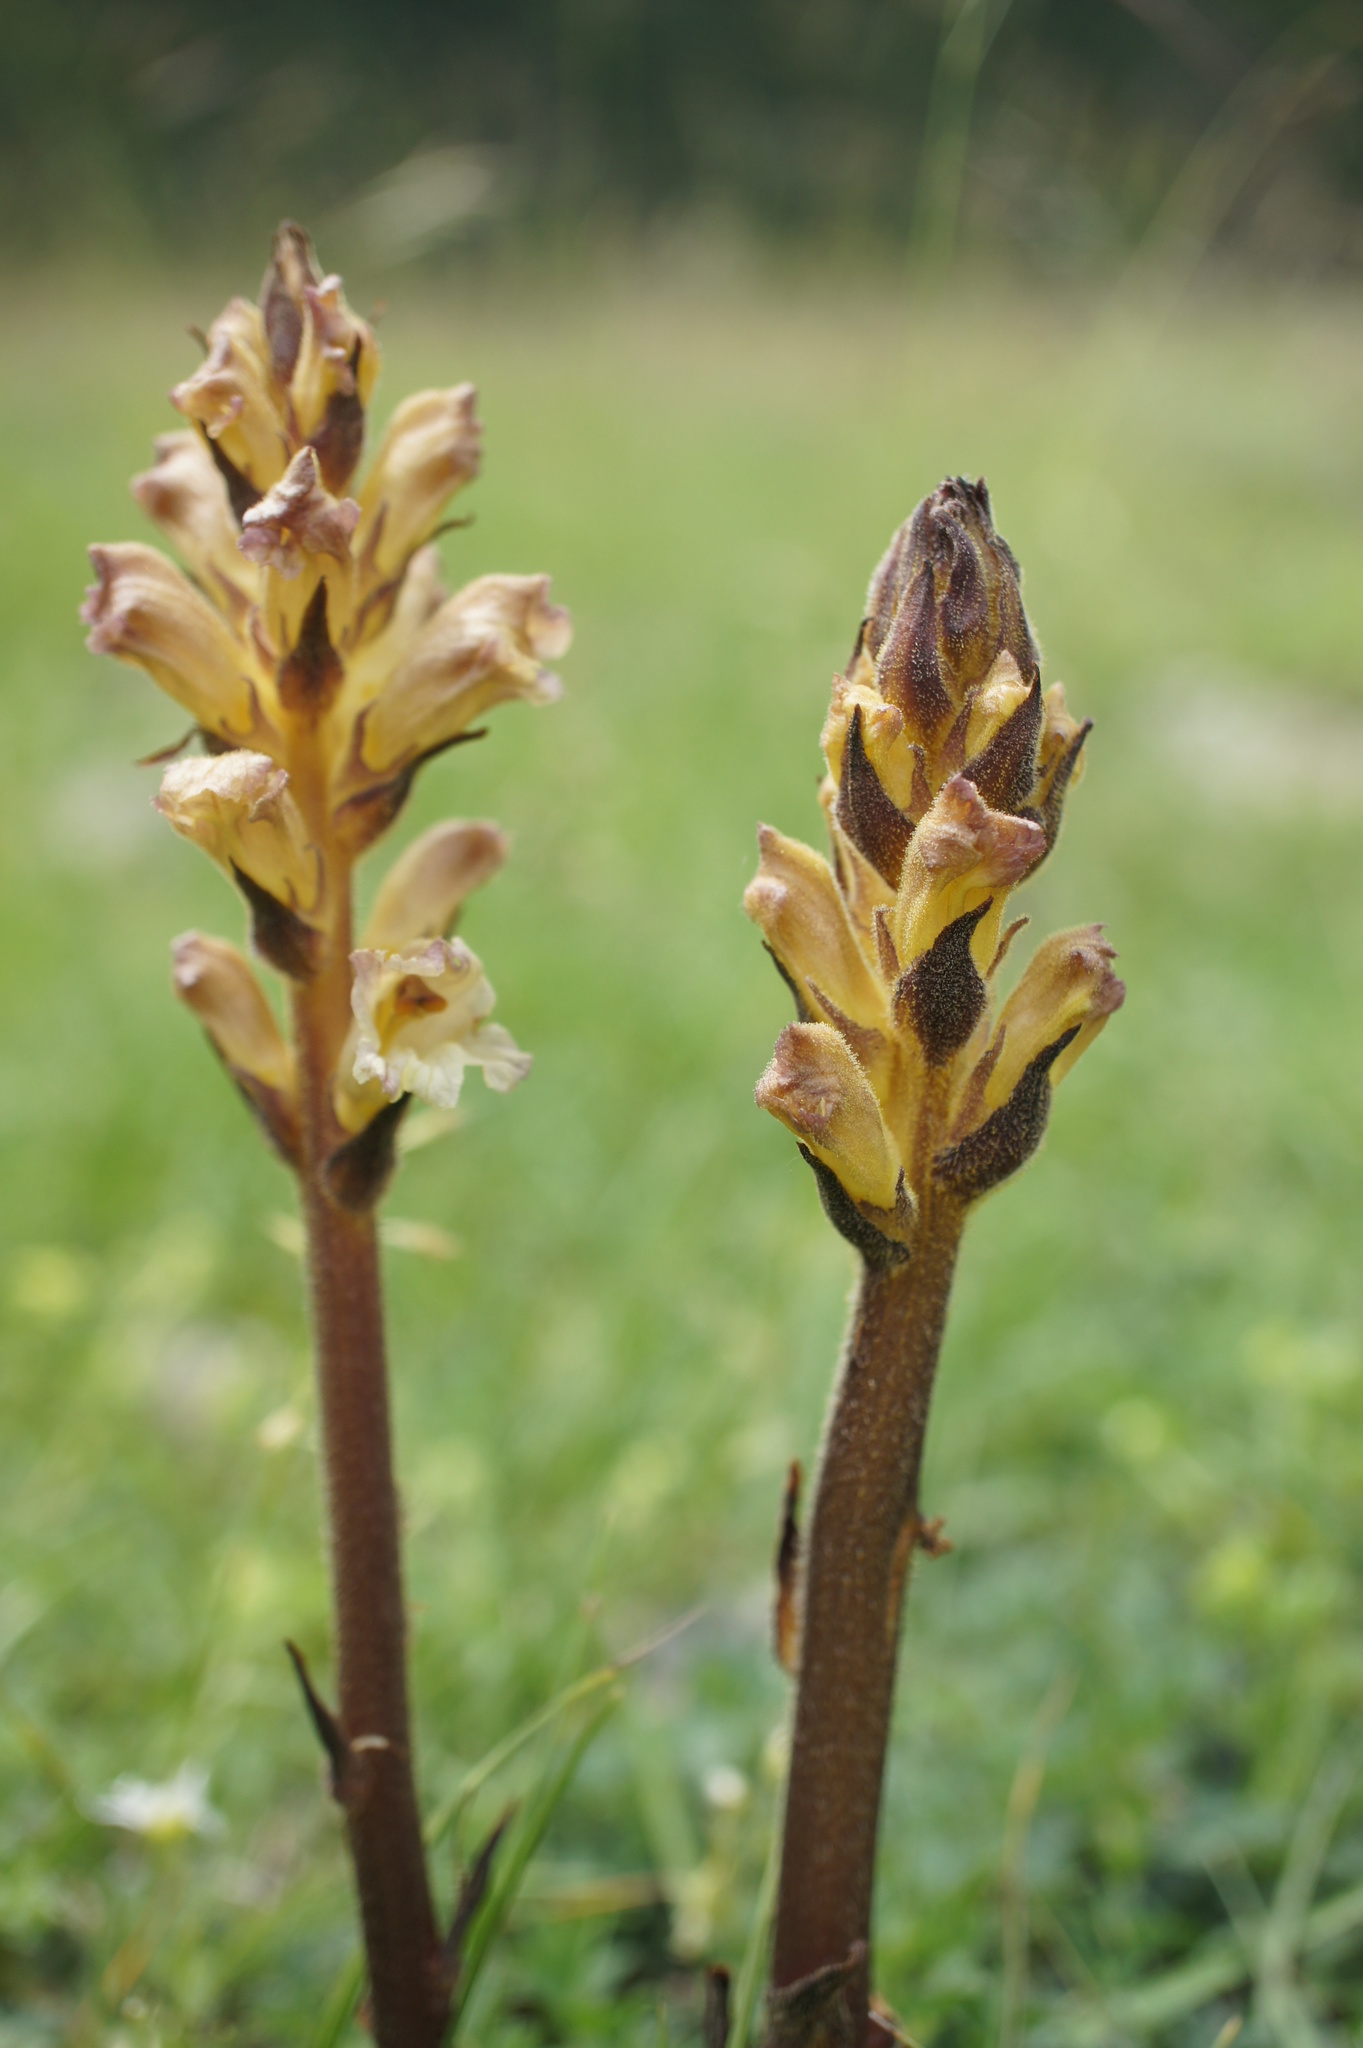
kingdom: Plantae
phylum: Tracheophyta
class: Magnoliopsida
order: Lamiales
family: Orobanchaceae
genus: Orobanche
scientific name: Orobanche lutea
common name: Yellow broomrape
